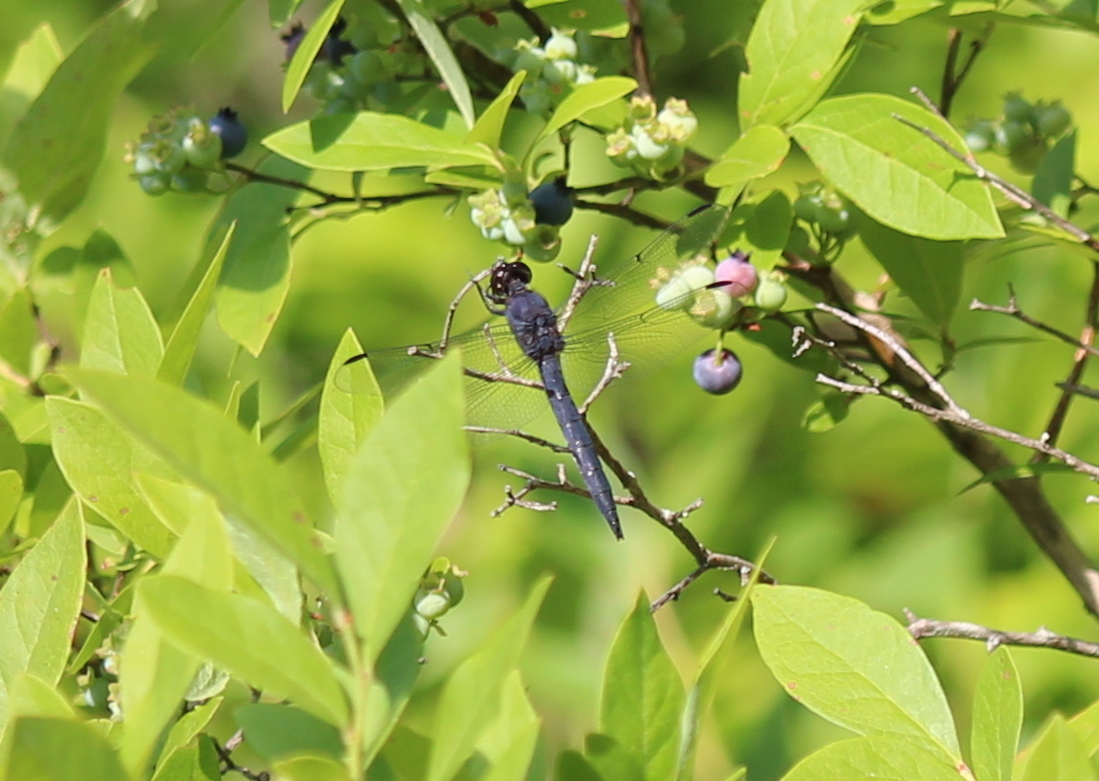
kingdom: Animalia
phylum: Arthropoda
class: Insecta
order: Odonata
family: Libellulidae
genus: Libellula
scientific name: Libellula incesta
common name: Slaty skimmer
